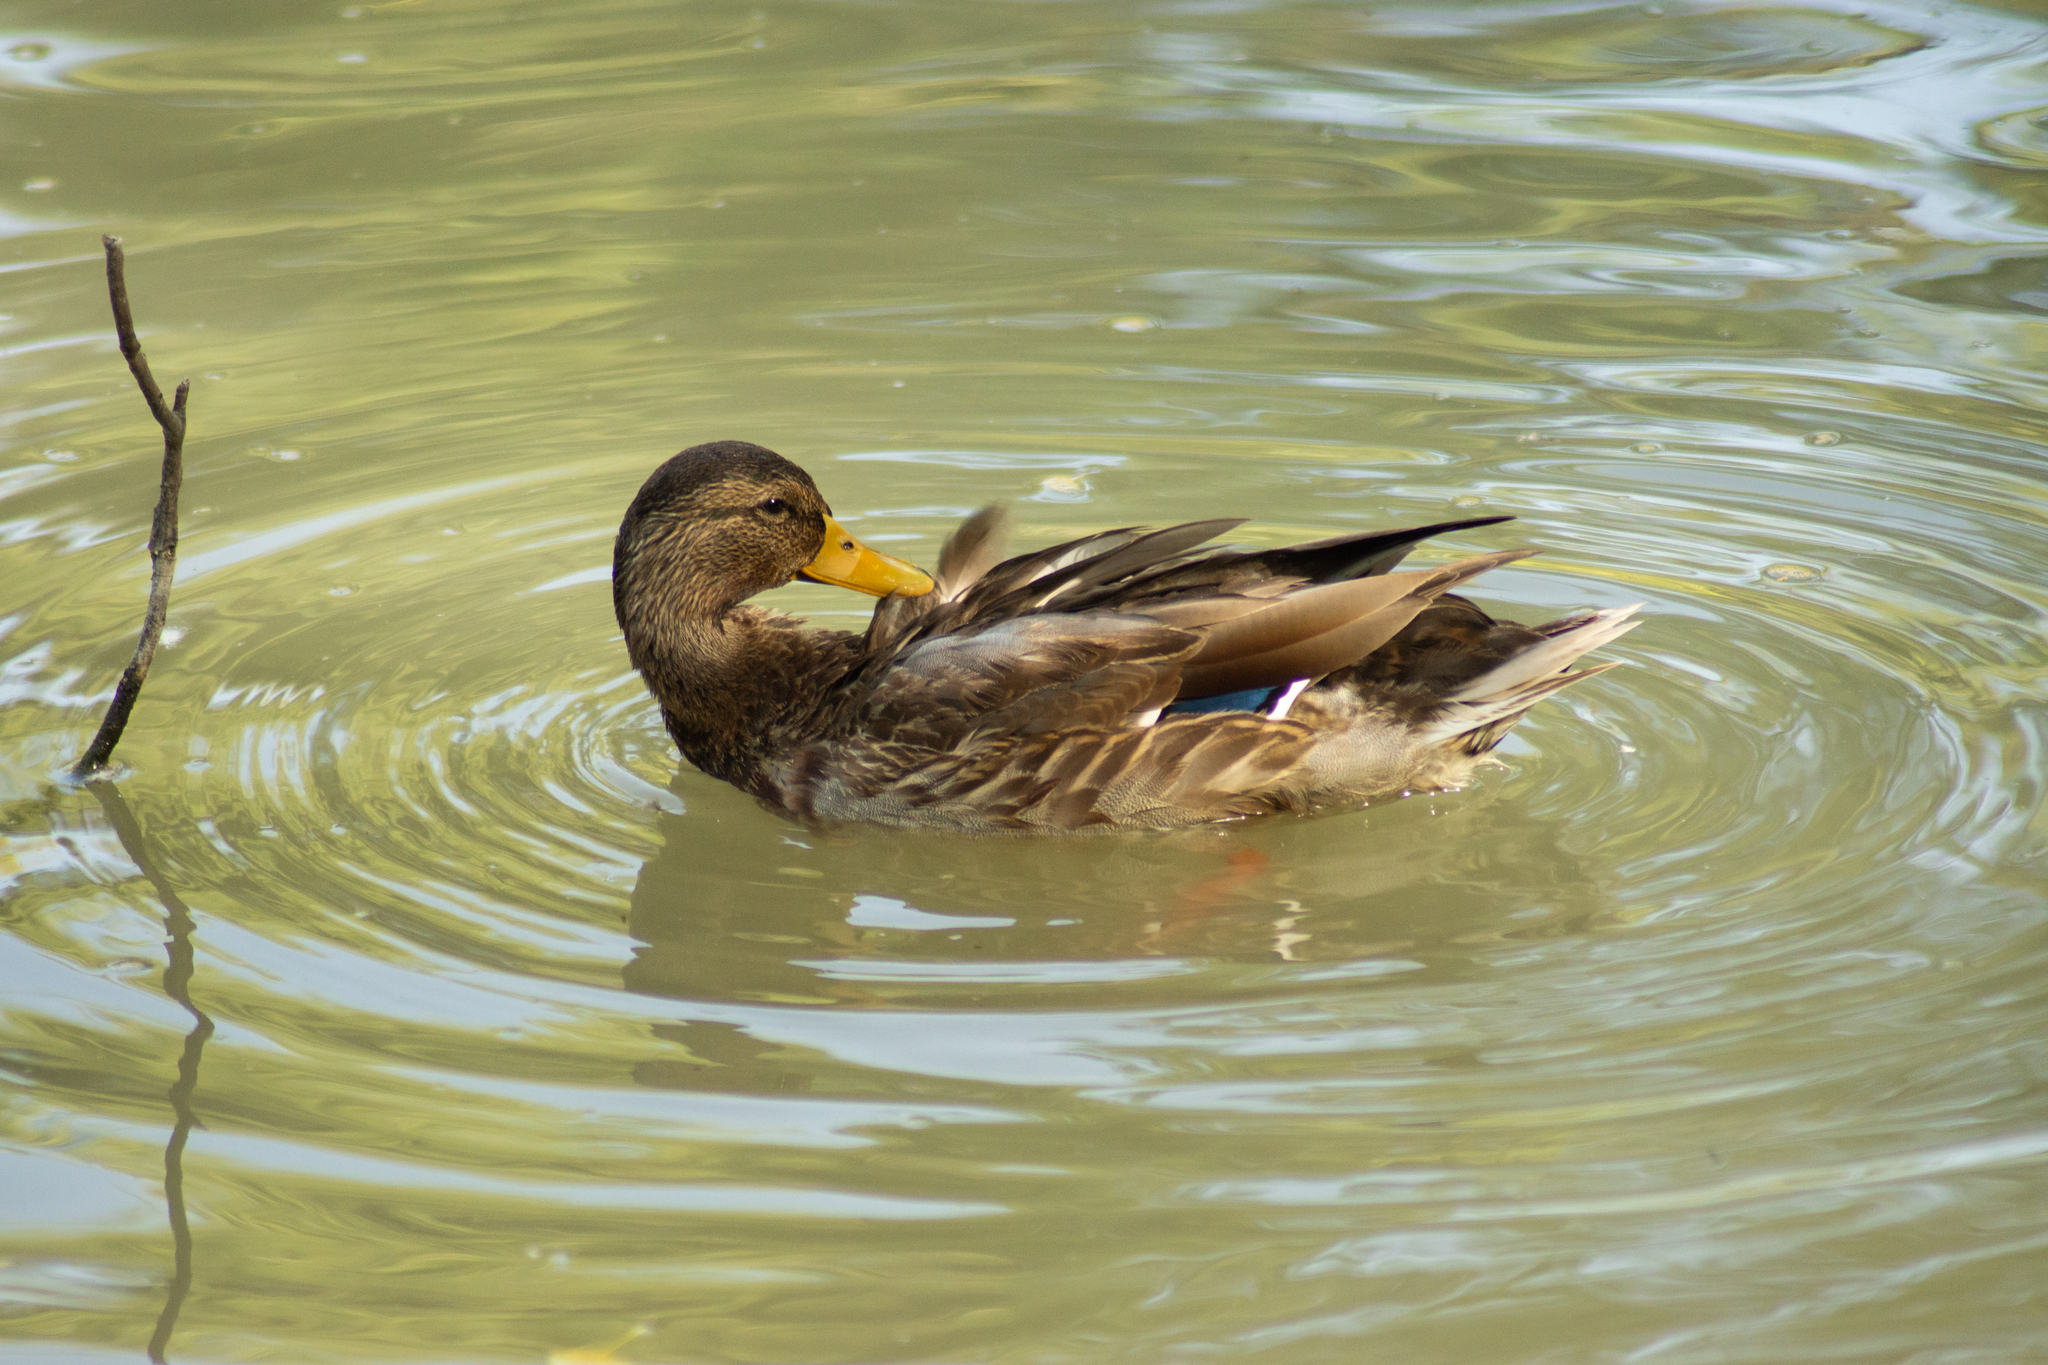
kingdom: Animalia
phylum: Chordata
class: Aves
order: Anseriformes
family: Anatidae
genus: Anas
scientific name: Anas platyrhynchos
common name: Mallard
